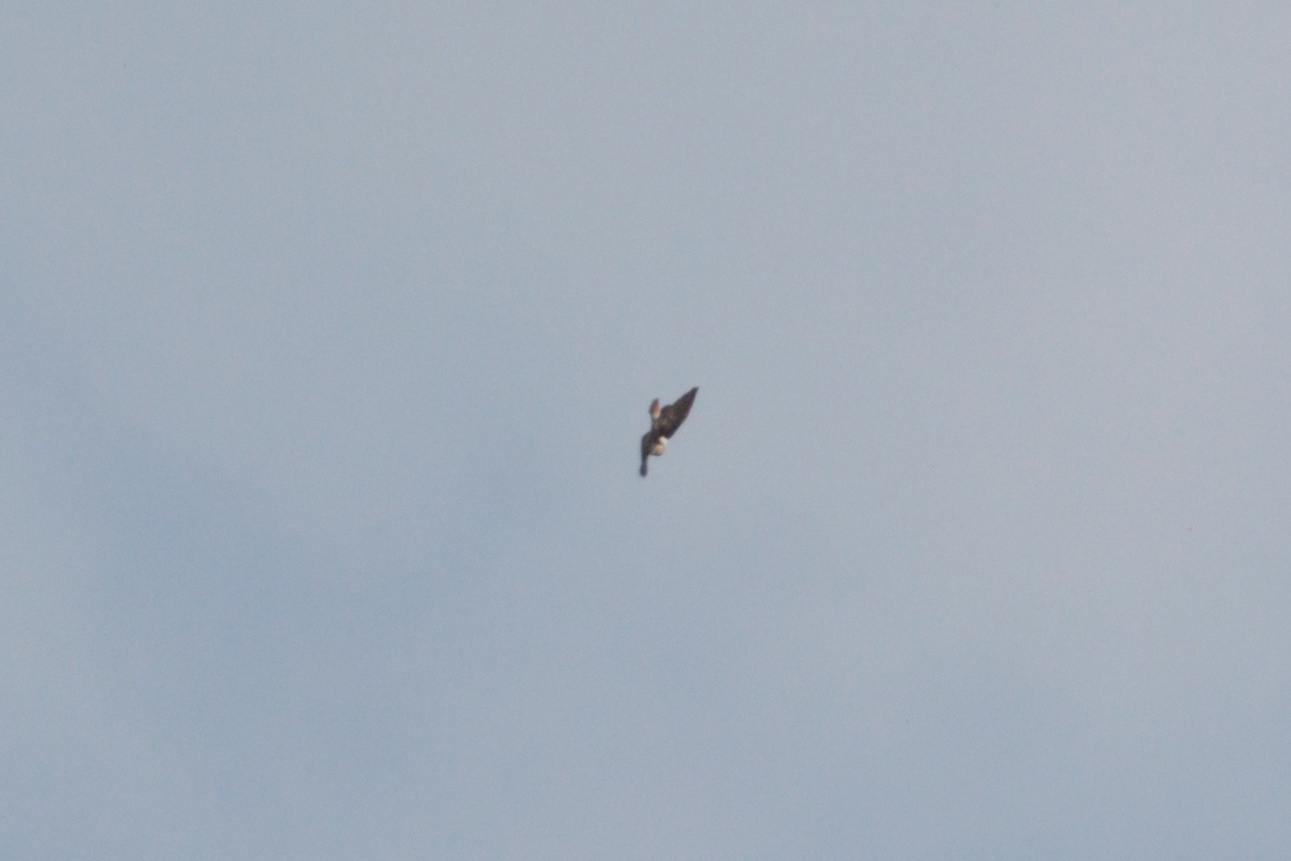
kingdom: Animalia
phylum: Chordata
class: Aves
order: Accipitriformes
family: Accipitridae
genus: Buteo
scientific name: Buteo jamaicensis
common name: Red-tailed hawk
